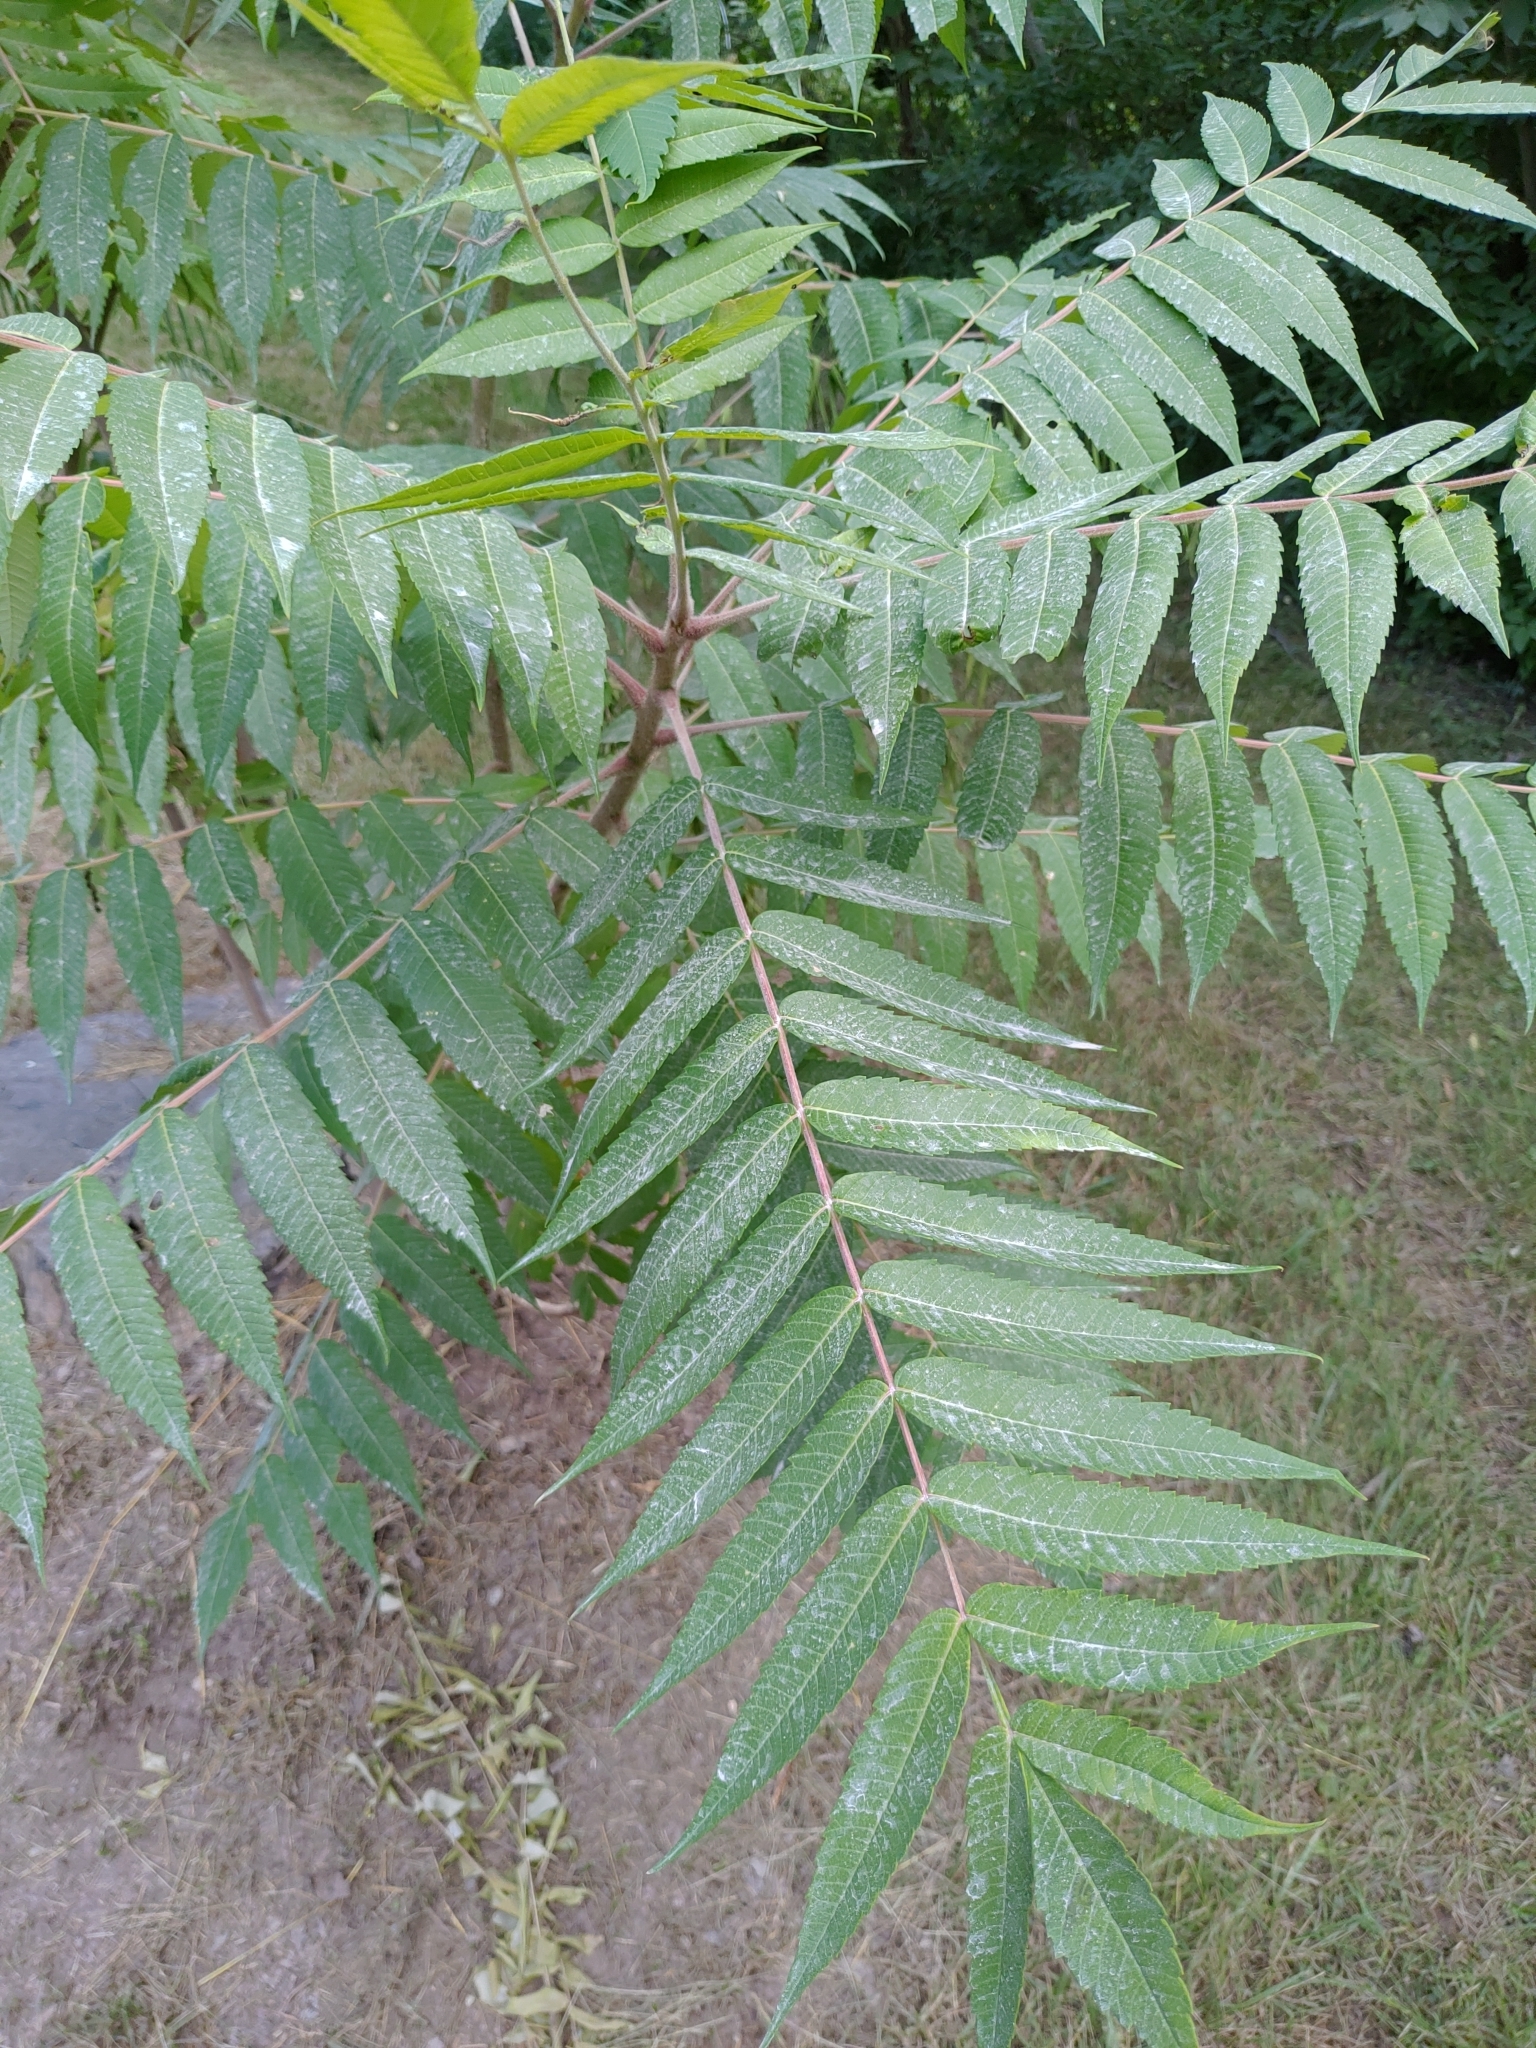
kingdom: Plantae
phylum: Tracheophyta
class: Magnoliopsida
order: Sapindales
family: Anacardiaceae
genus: Rhus
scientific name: Rhus typhina
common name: Staghorn sumac
